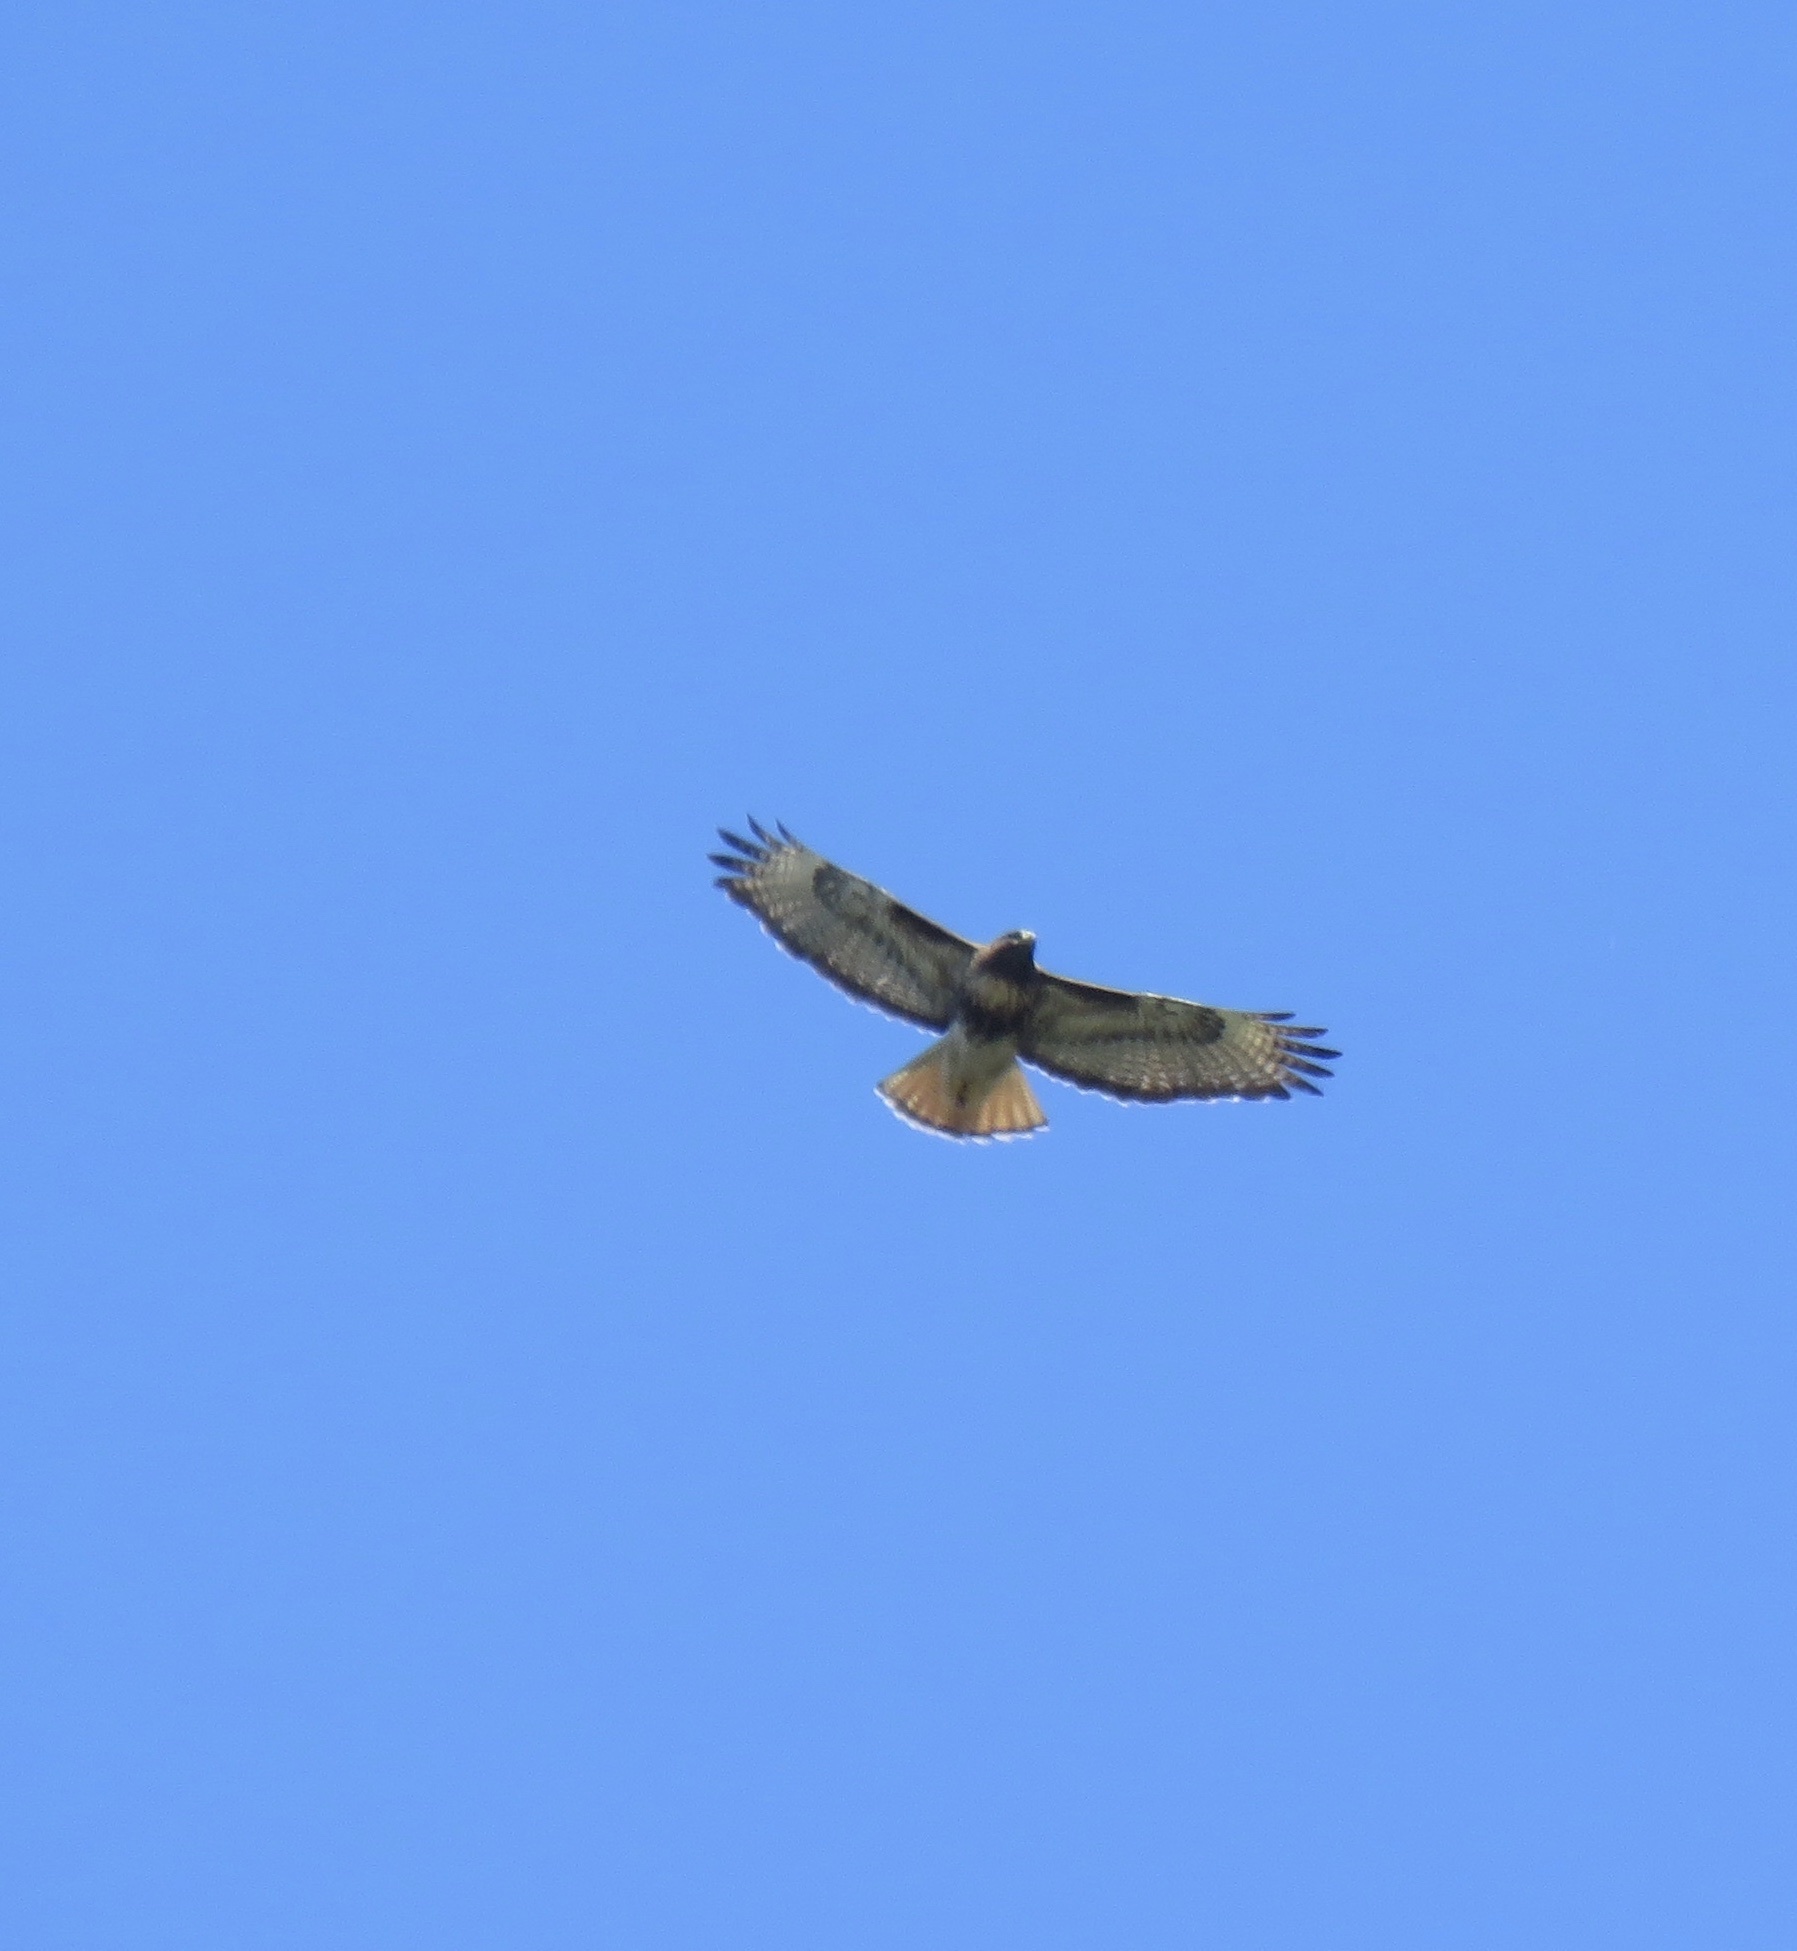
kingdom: Animalia
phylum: Chordata
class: Aves
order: Accipitriformes
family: Accipitridae
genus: Buteo
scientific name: Buteo jamaicensis
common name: Red-tailed hawk
